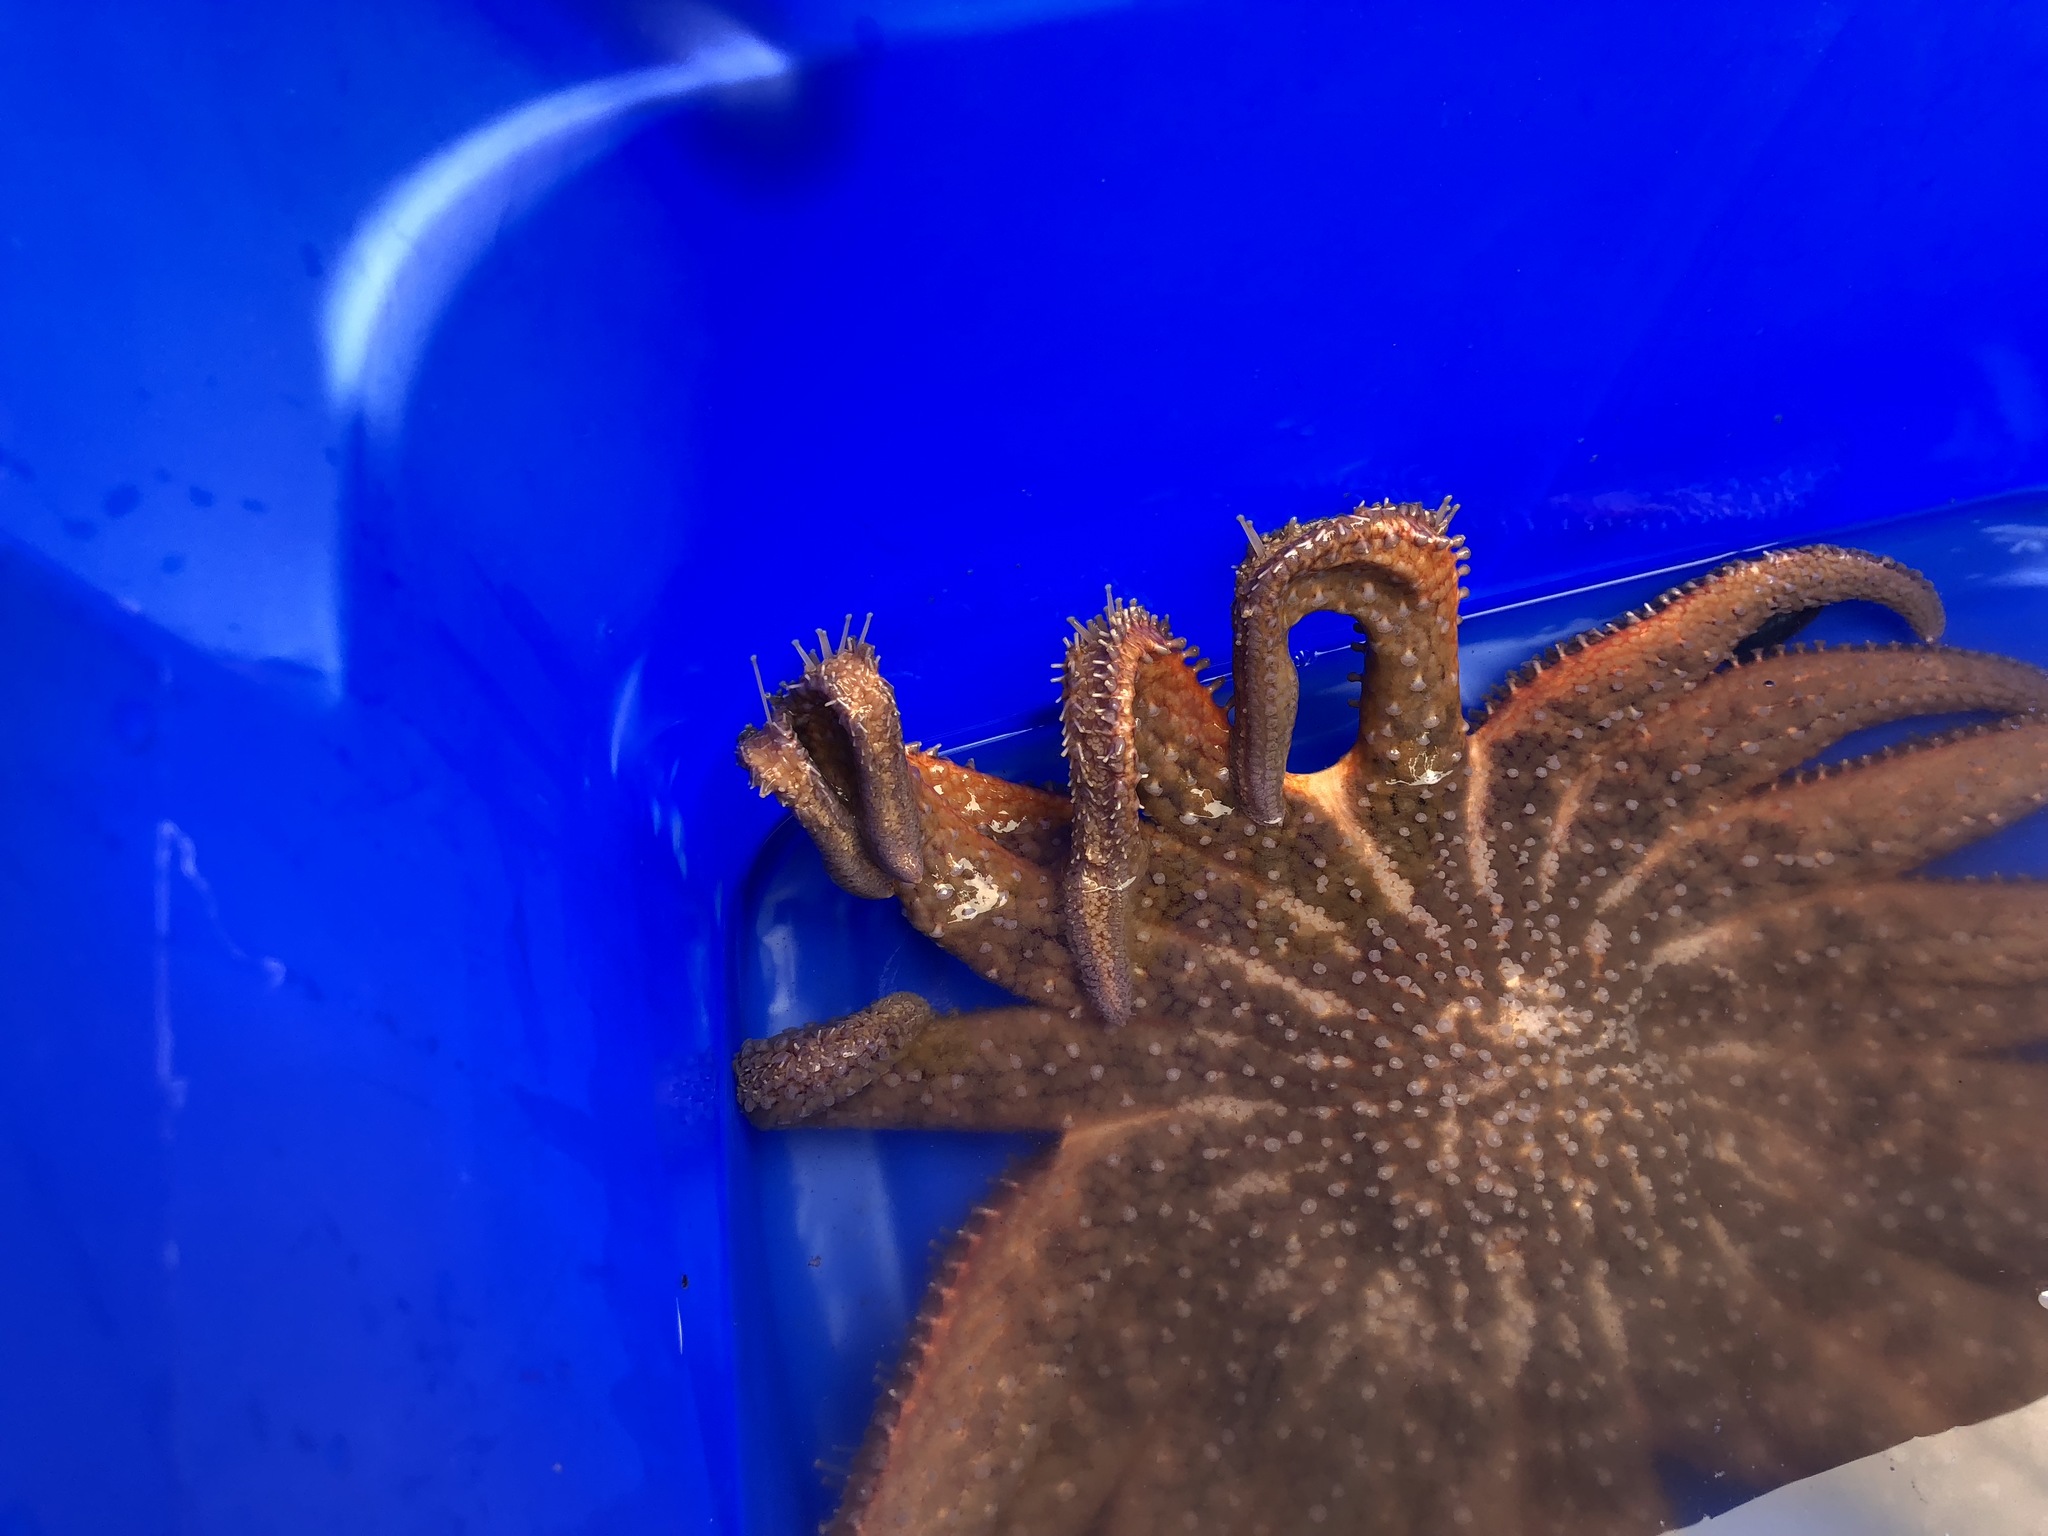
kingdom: Animalia
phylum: Echinodermata
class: Asteroidea
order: Forcipulatida
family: Asteriidae
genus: Pycnopodia
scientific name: Pycnopodia helianthoides
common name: Rag mop
